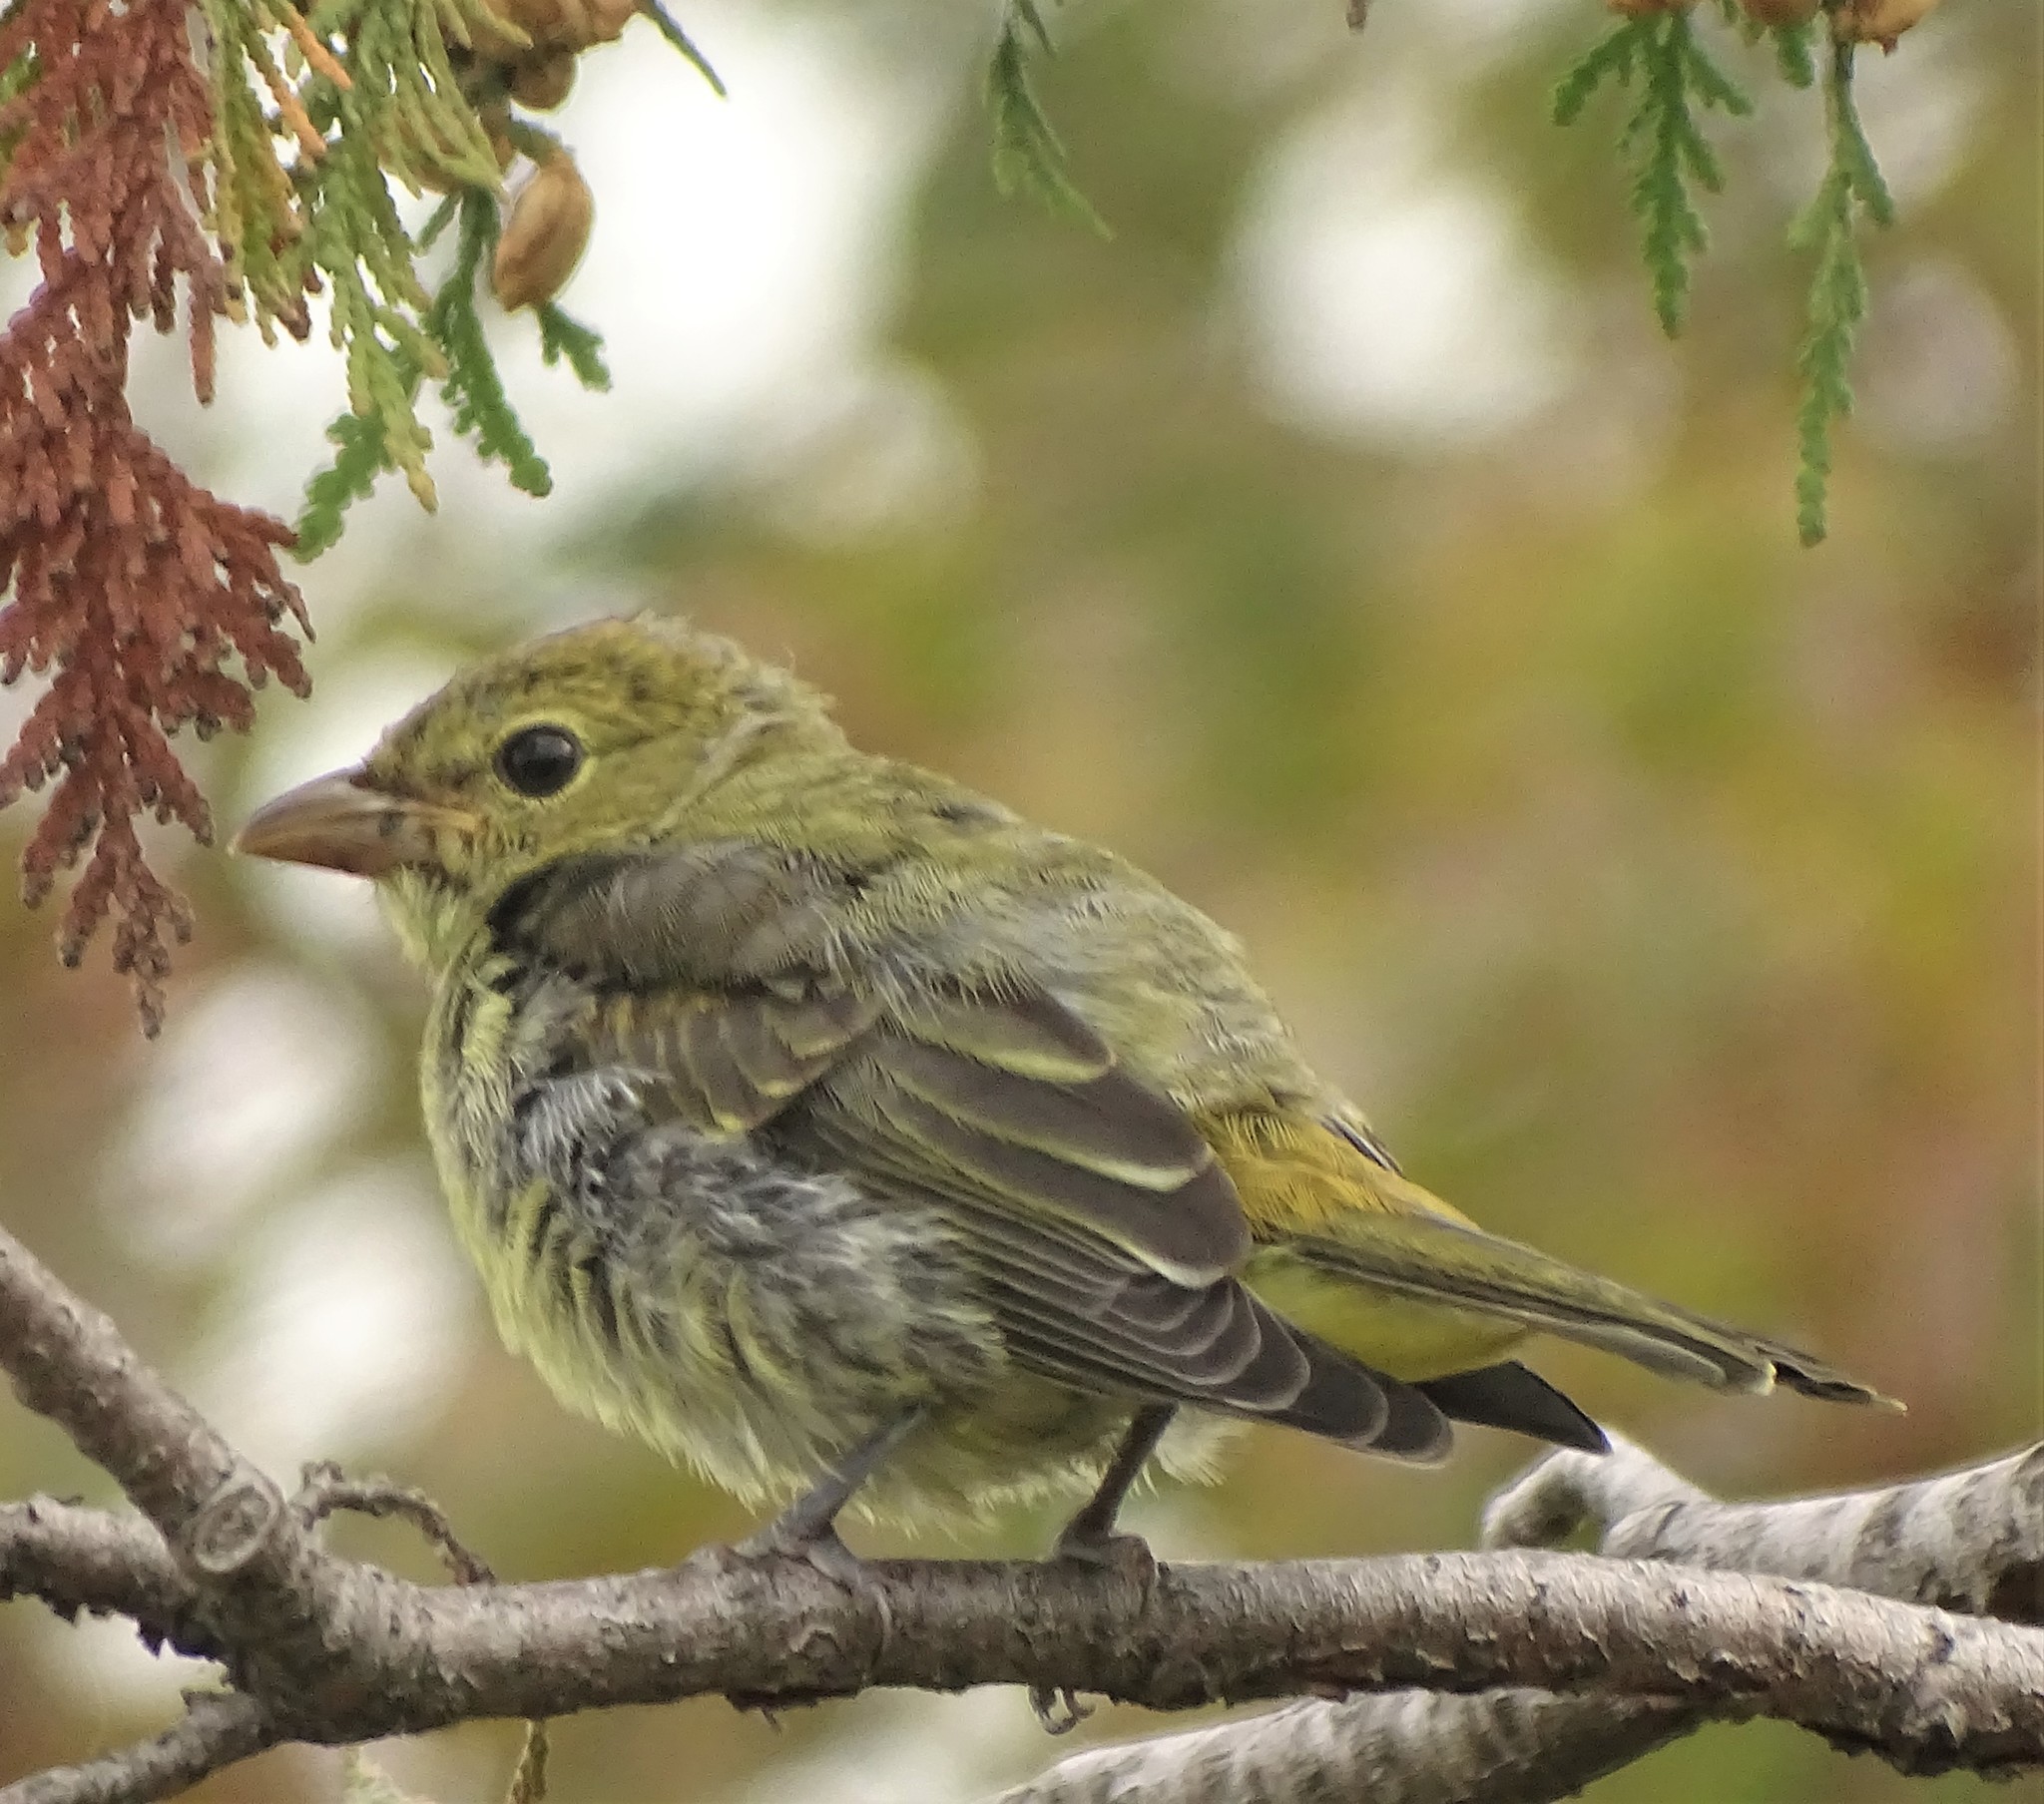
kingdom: Animalia
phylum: Chordata
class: Aves
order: Passeriformes
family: Cardinalidae
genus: Piranga
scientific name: Piranga olivacea
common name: Scarlet tanager
